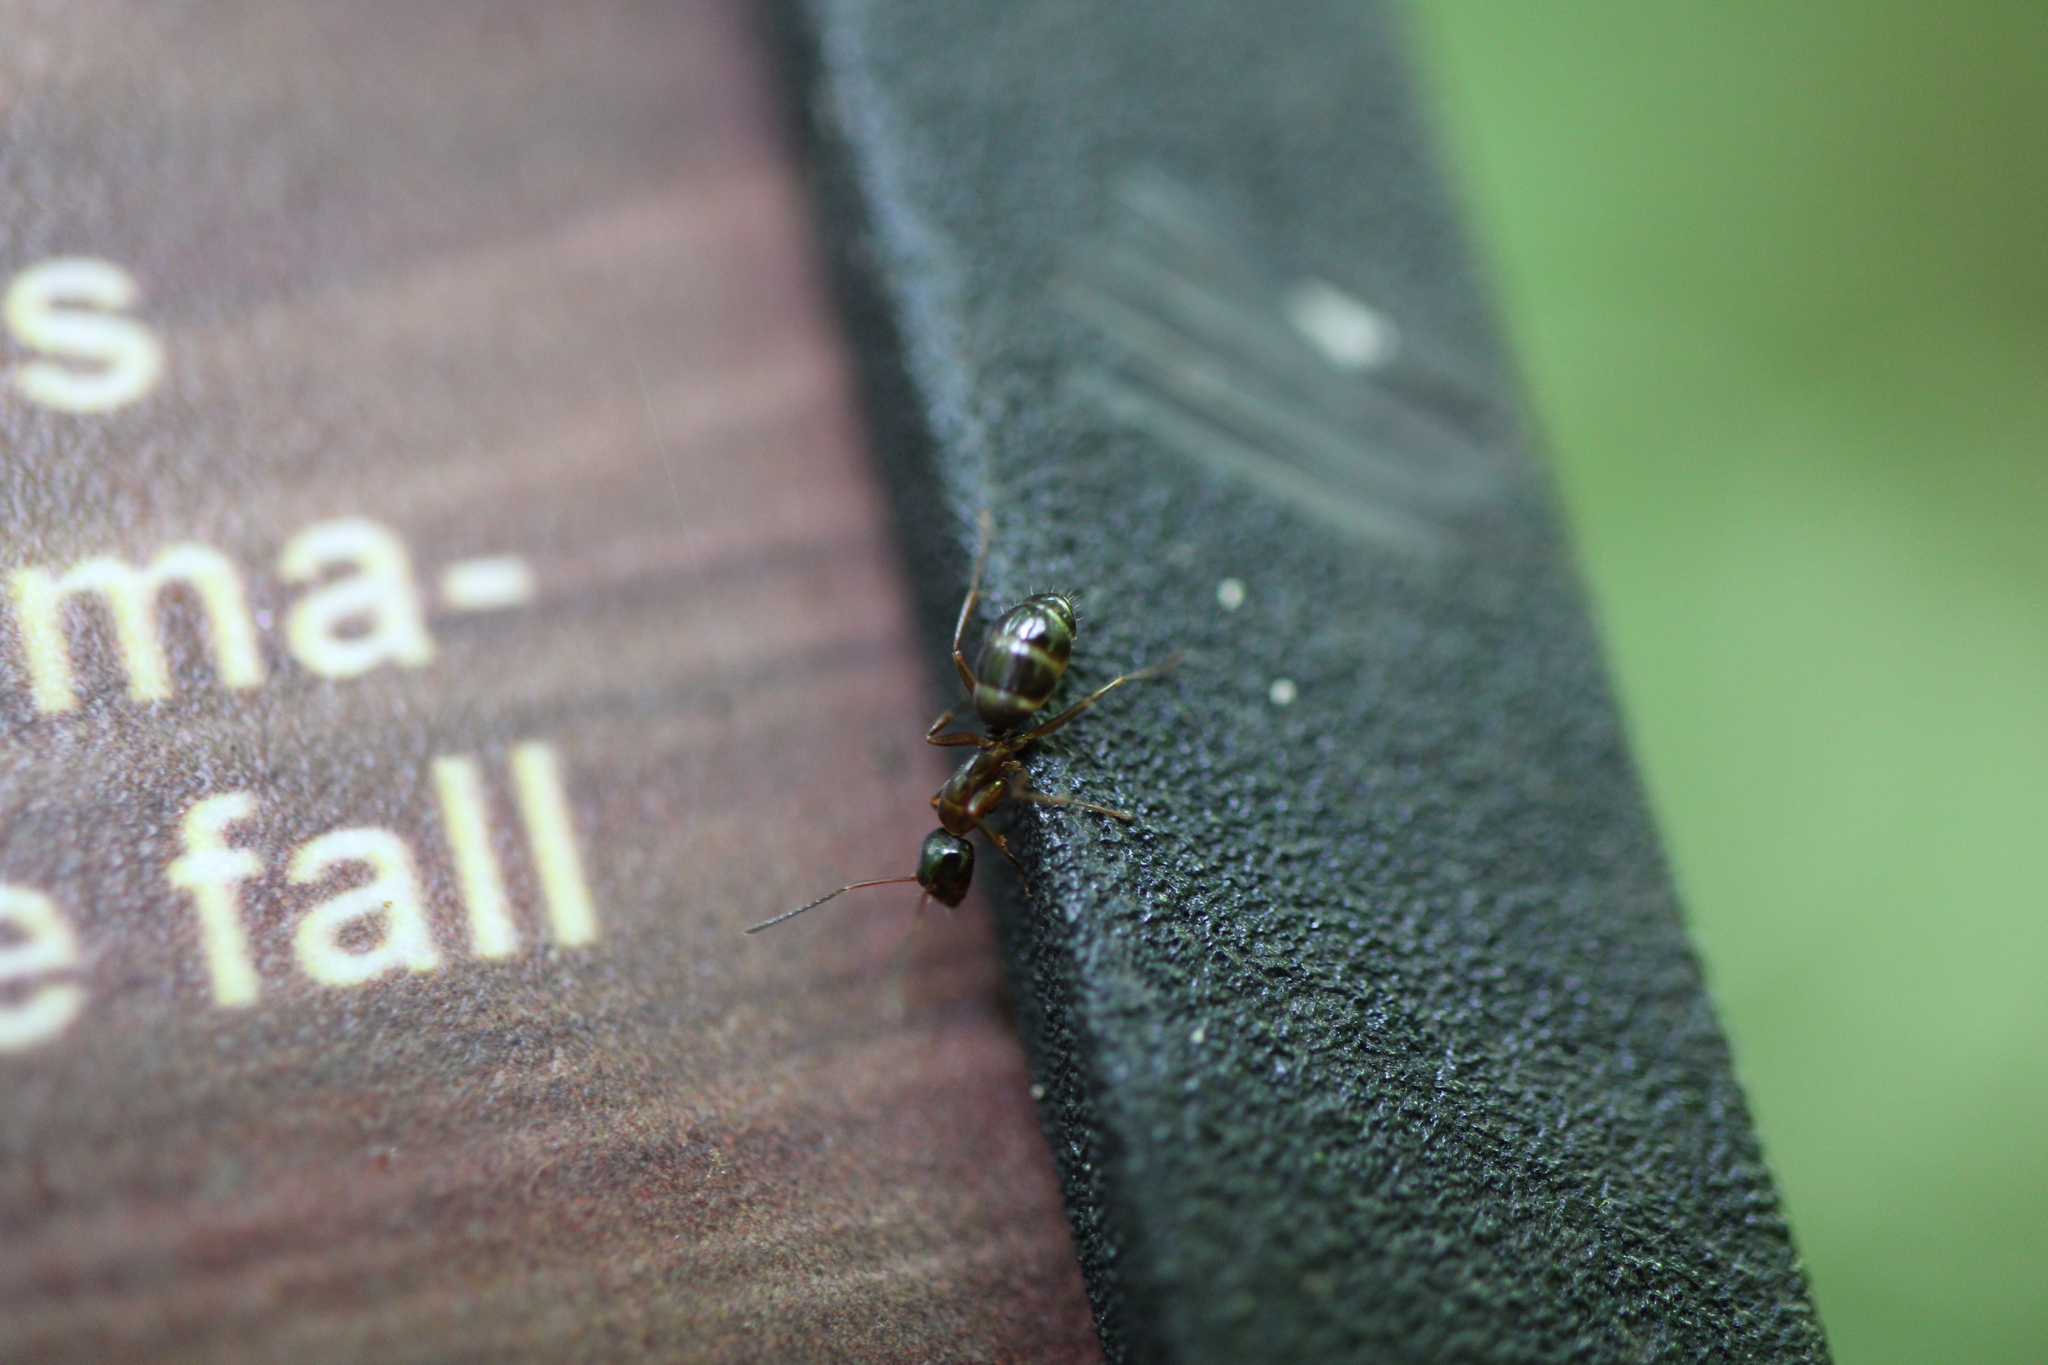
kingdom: Animalia
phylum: Arthropoda
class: Insecta
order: Hymenoptera
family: Formicidae
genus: Camponotus
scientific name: Camponotus nearcticus
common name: Smaller carpenter ant
